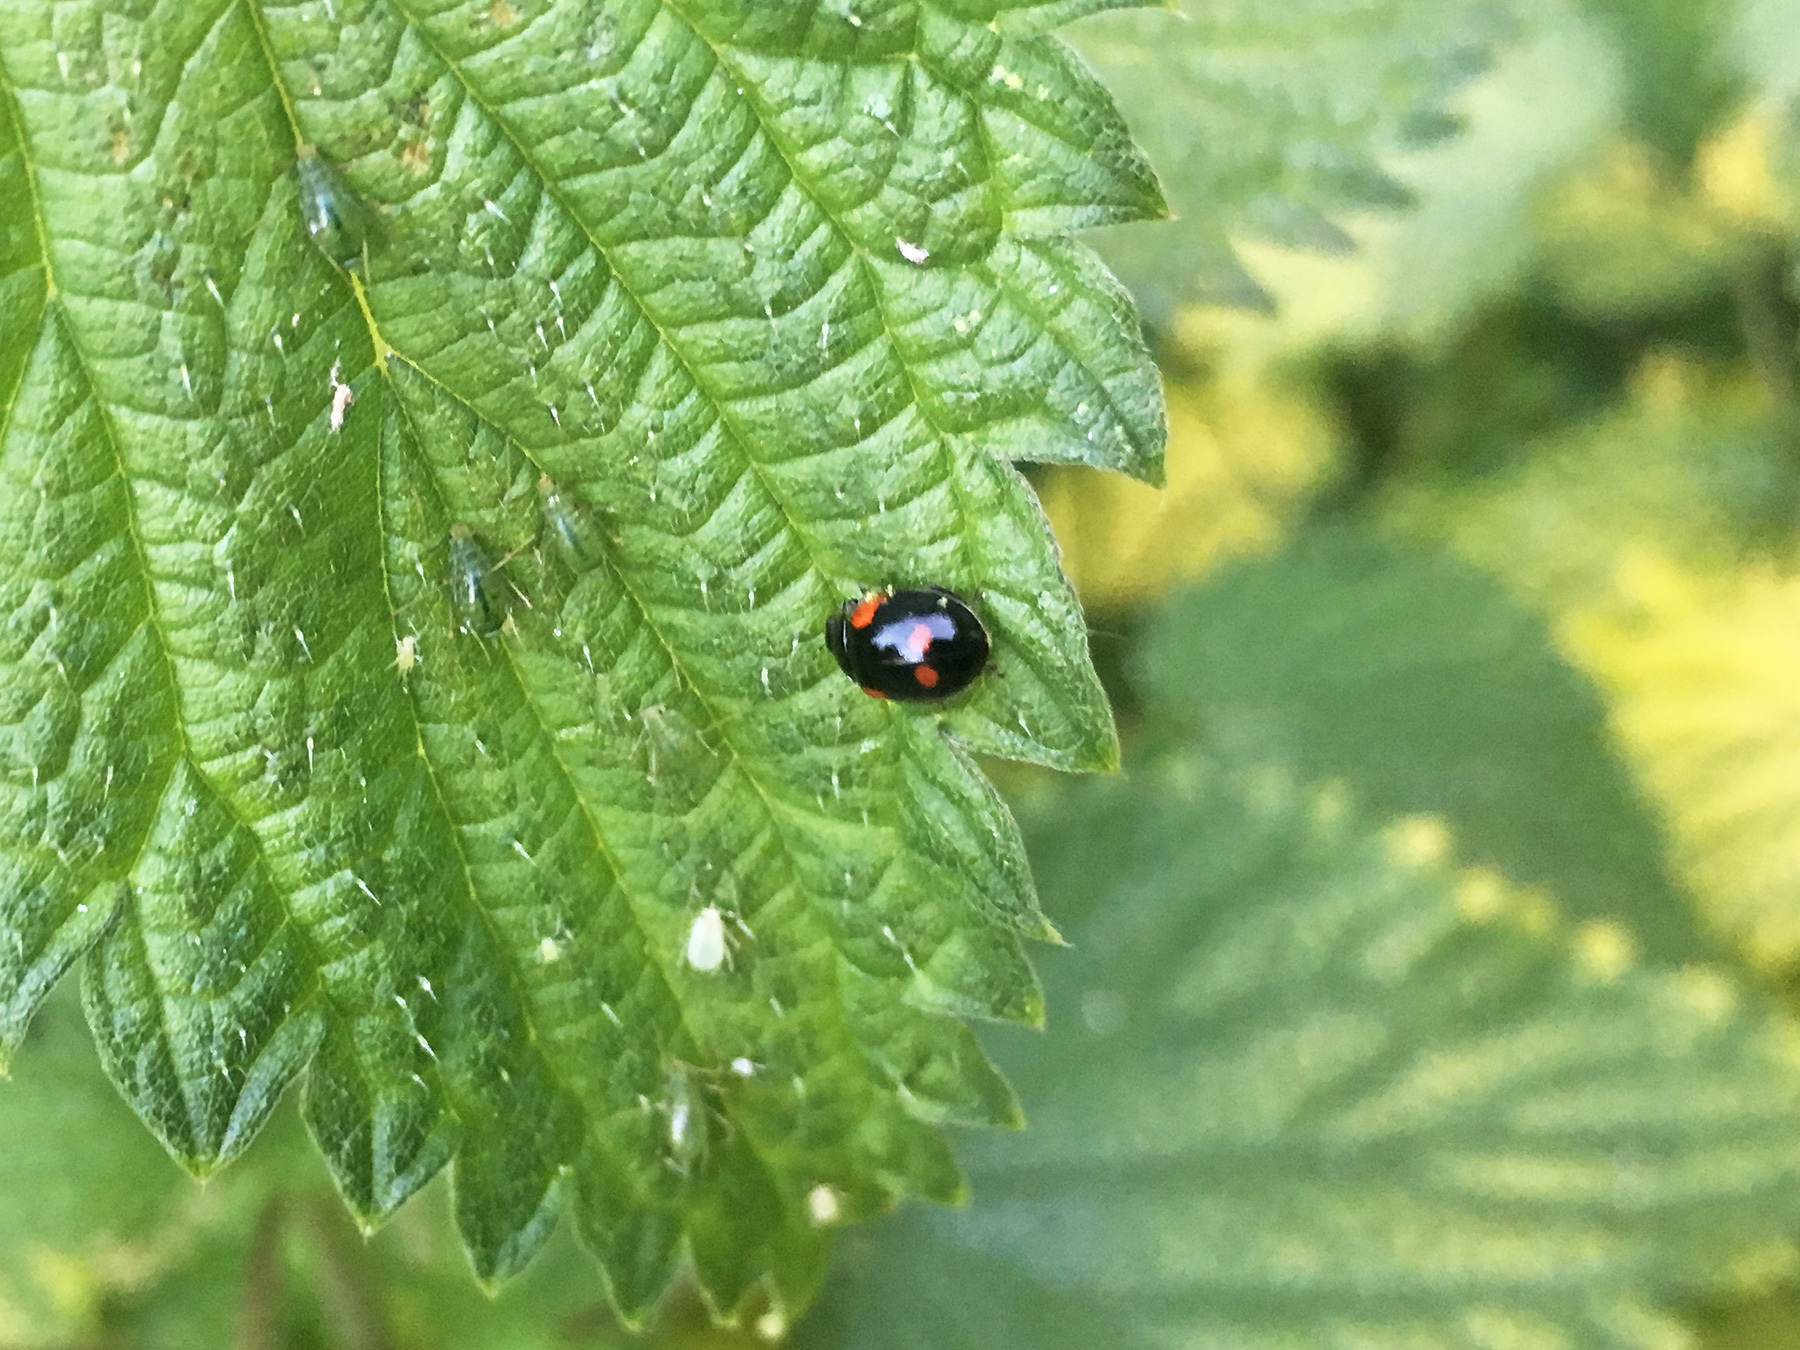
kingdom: Animalia
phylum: Arthropoda
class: Insecta
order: Coleoptera
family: Coccinellidae
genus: Adalia
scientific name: Adalia bipunctata
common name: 2-spot ladybird
